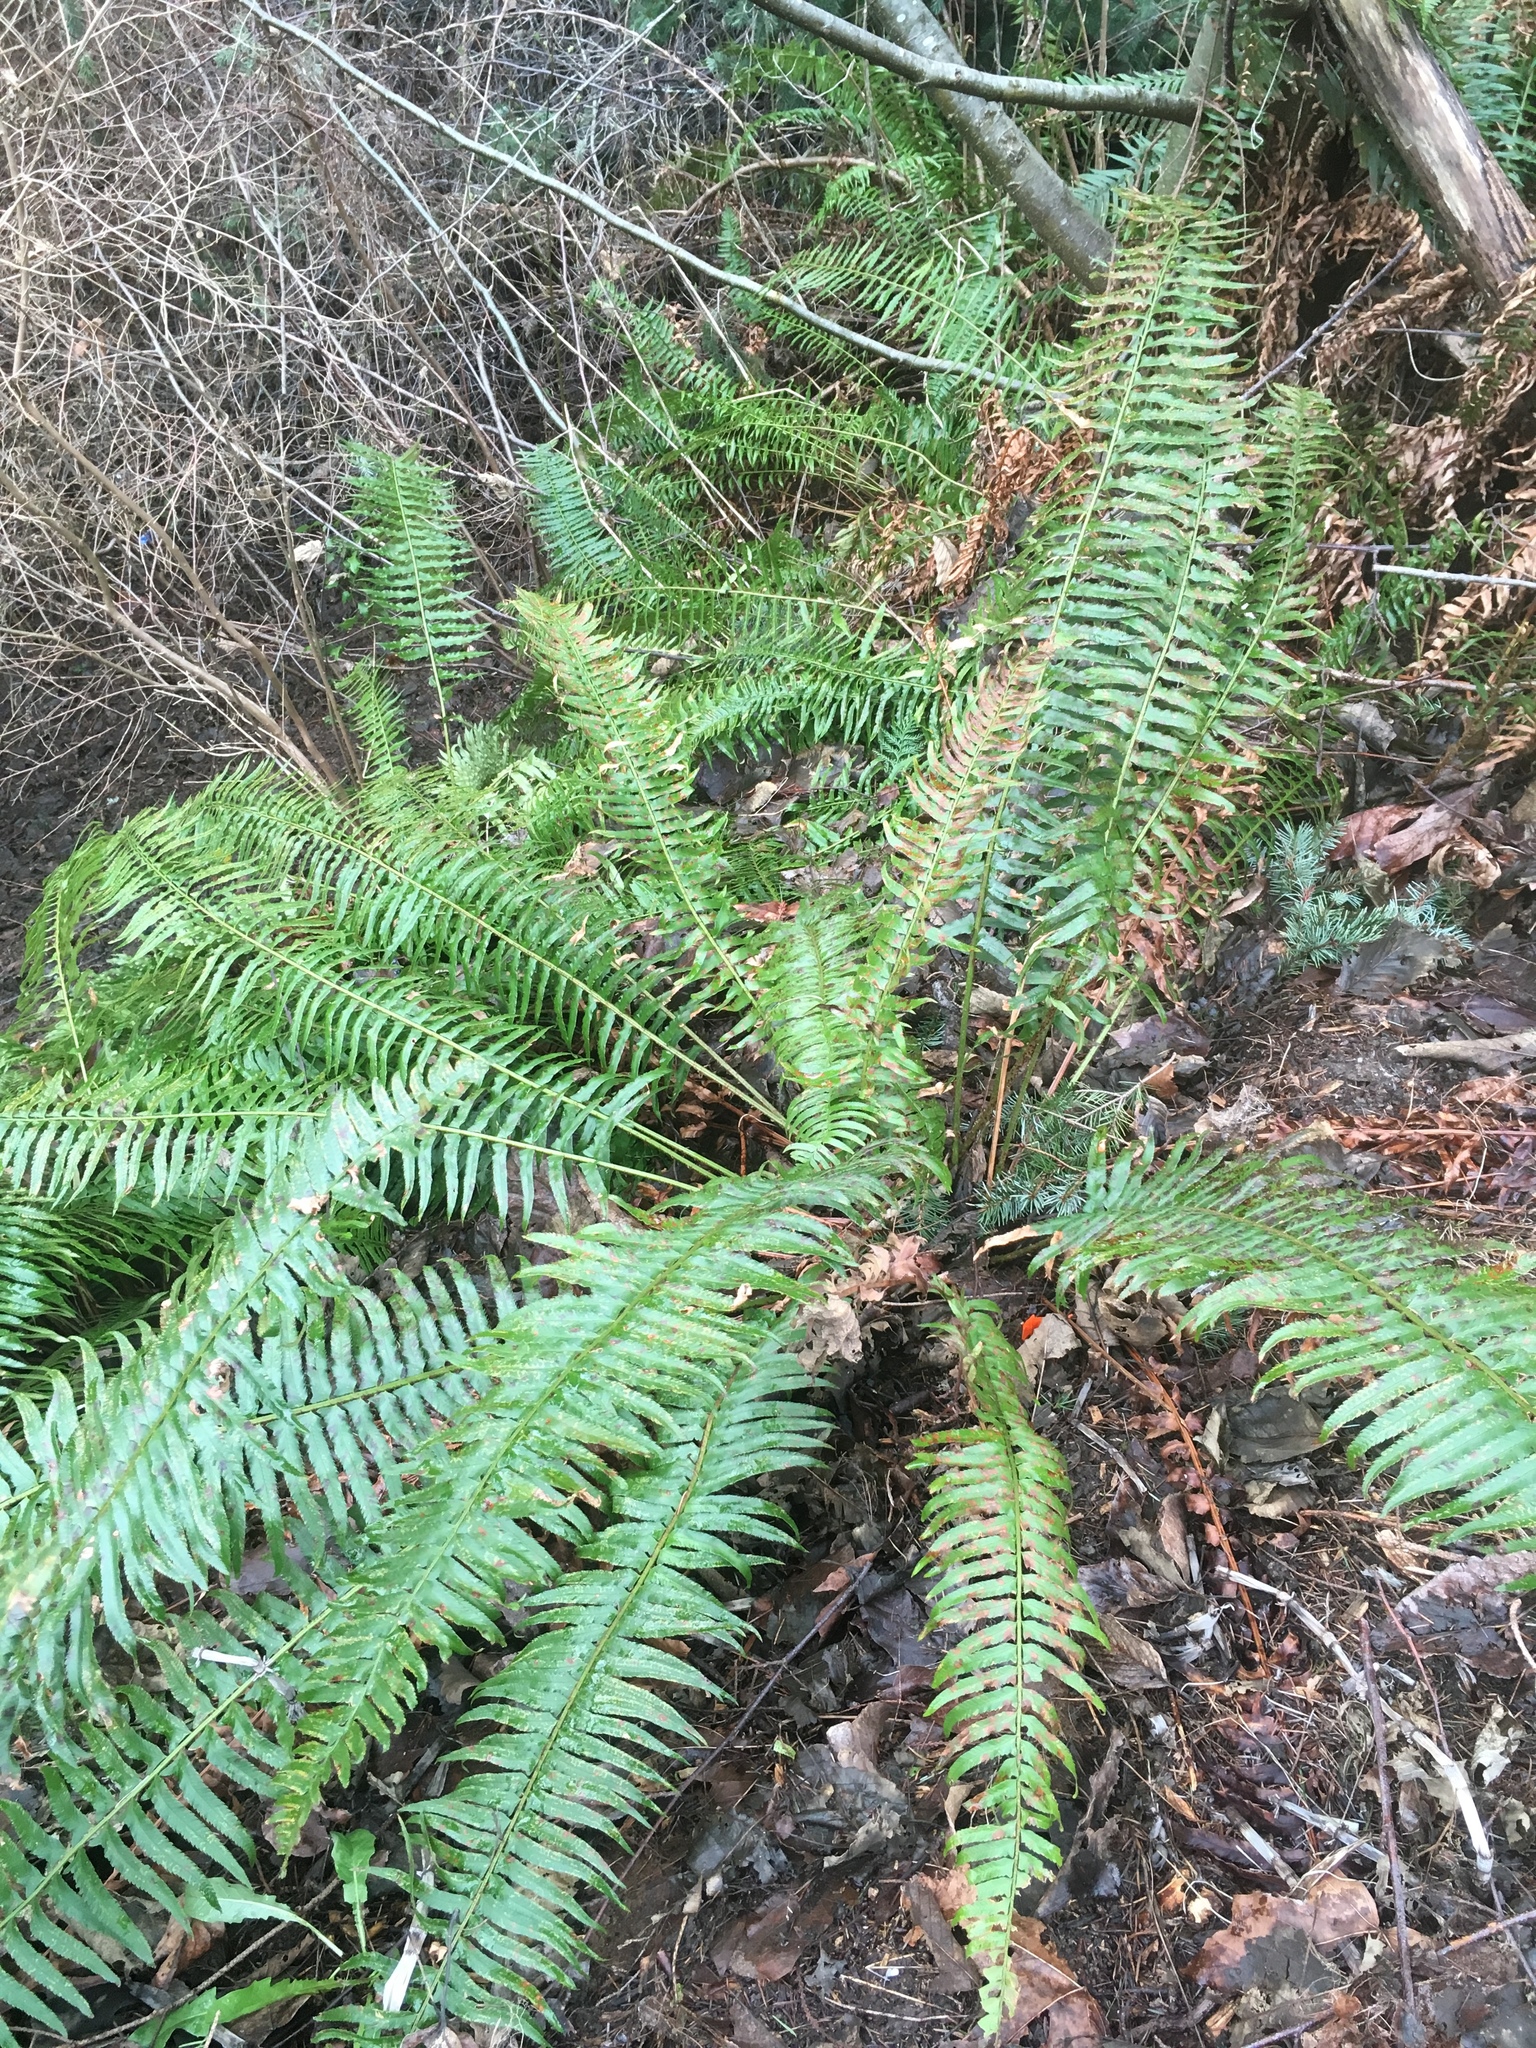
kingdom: Plantae
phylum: Tracheophyta
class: Polypodiopsida
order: Polypodiales
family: Dryopteridaceae
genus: Polystichum
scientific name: Polystichum munitum
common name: Western sword-fern
